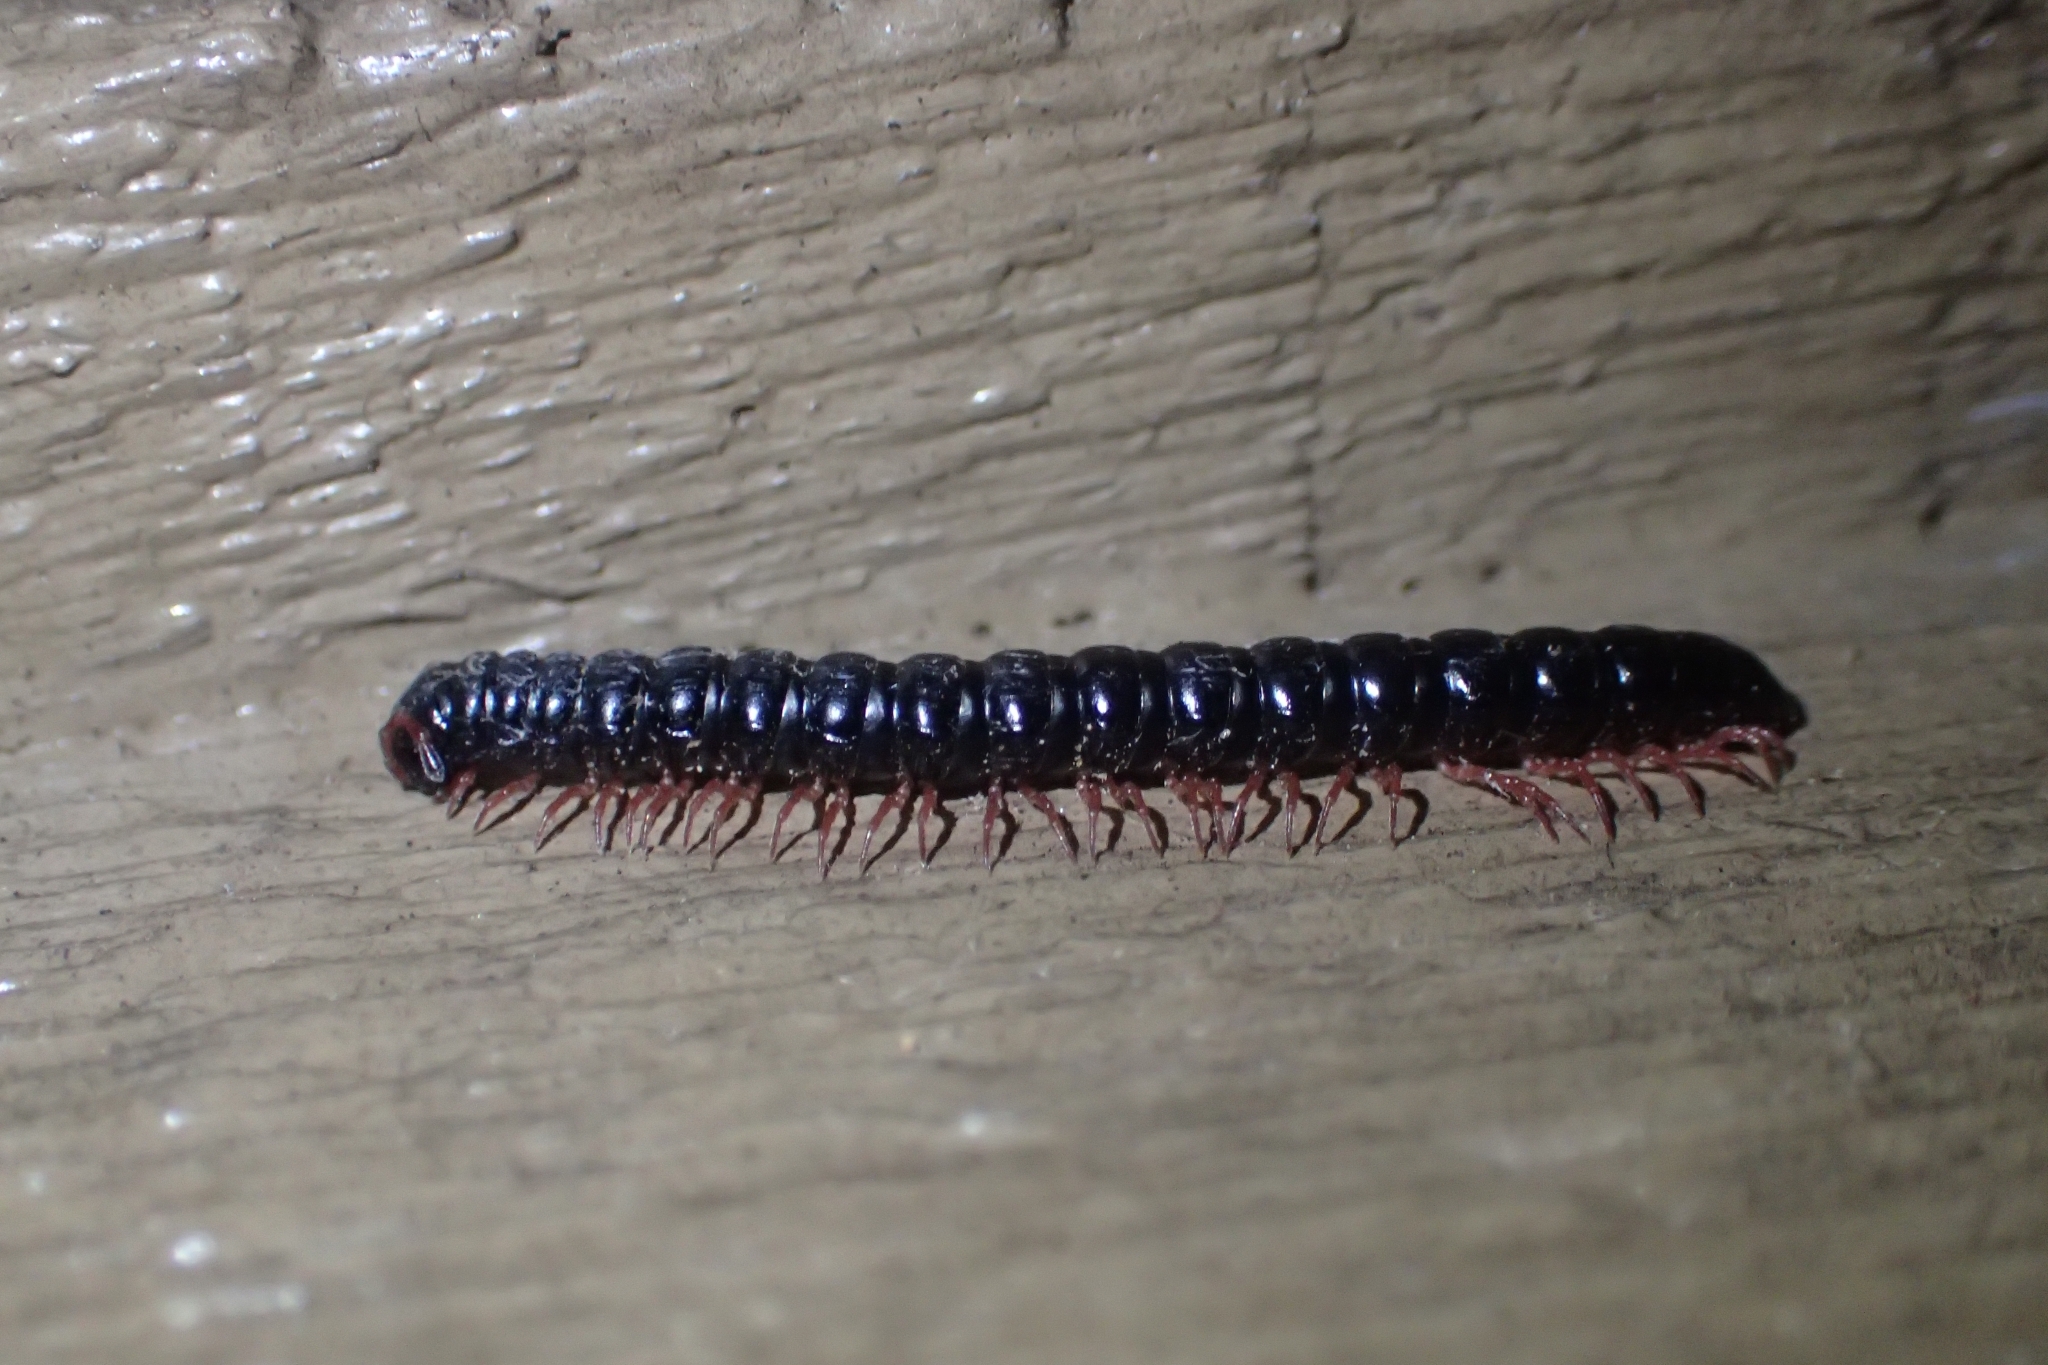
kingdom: Animalia
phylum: Arthropoda
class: Diplopoda
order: Polydesmida
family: Paradoxosomatidae
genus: Heterocladosoma
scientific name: Heterocladosoma
